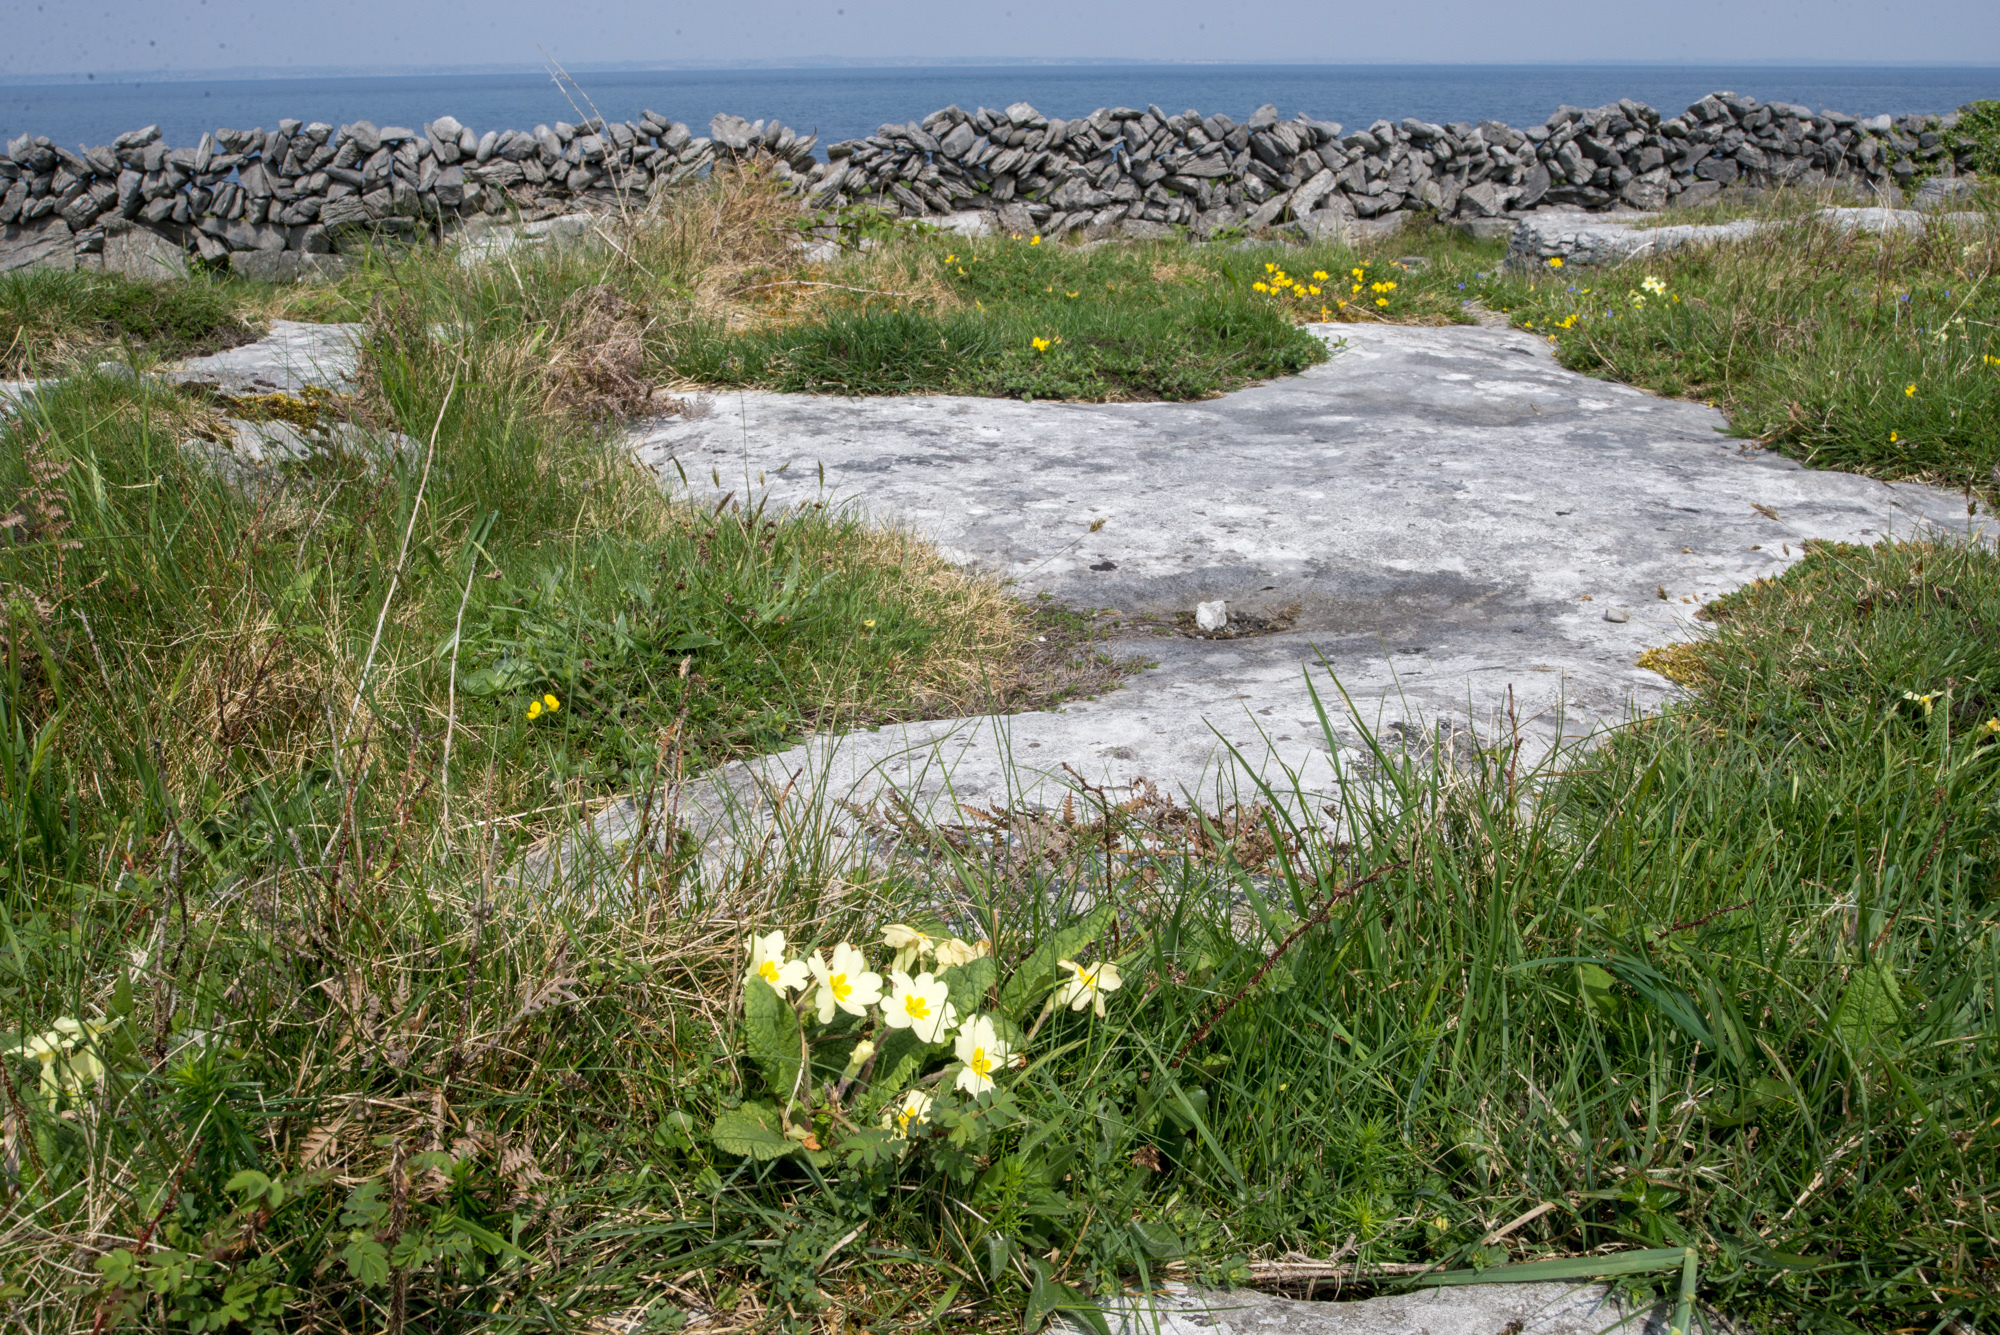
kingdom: Plantae
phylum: Tracheophyta
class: Magnoliopsida
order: Ericales
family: Primulaceae
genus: Primula
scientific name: Primula vulgaris
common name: Primrose
